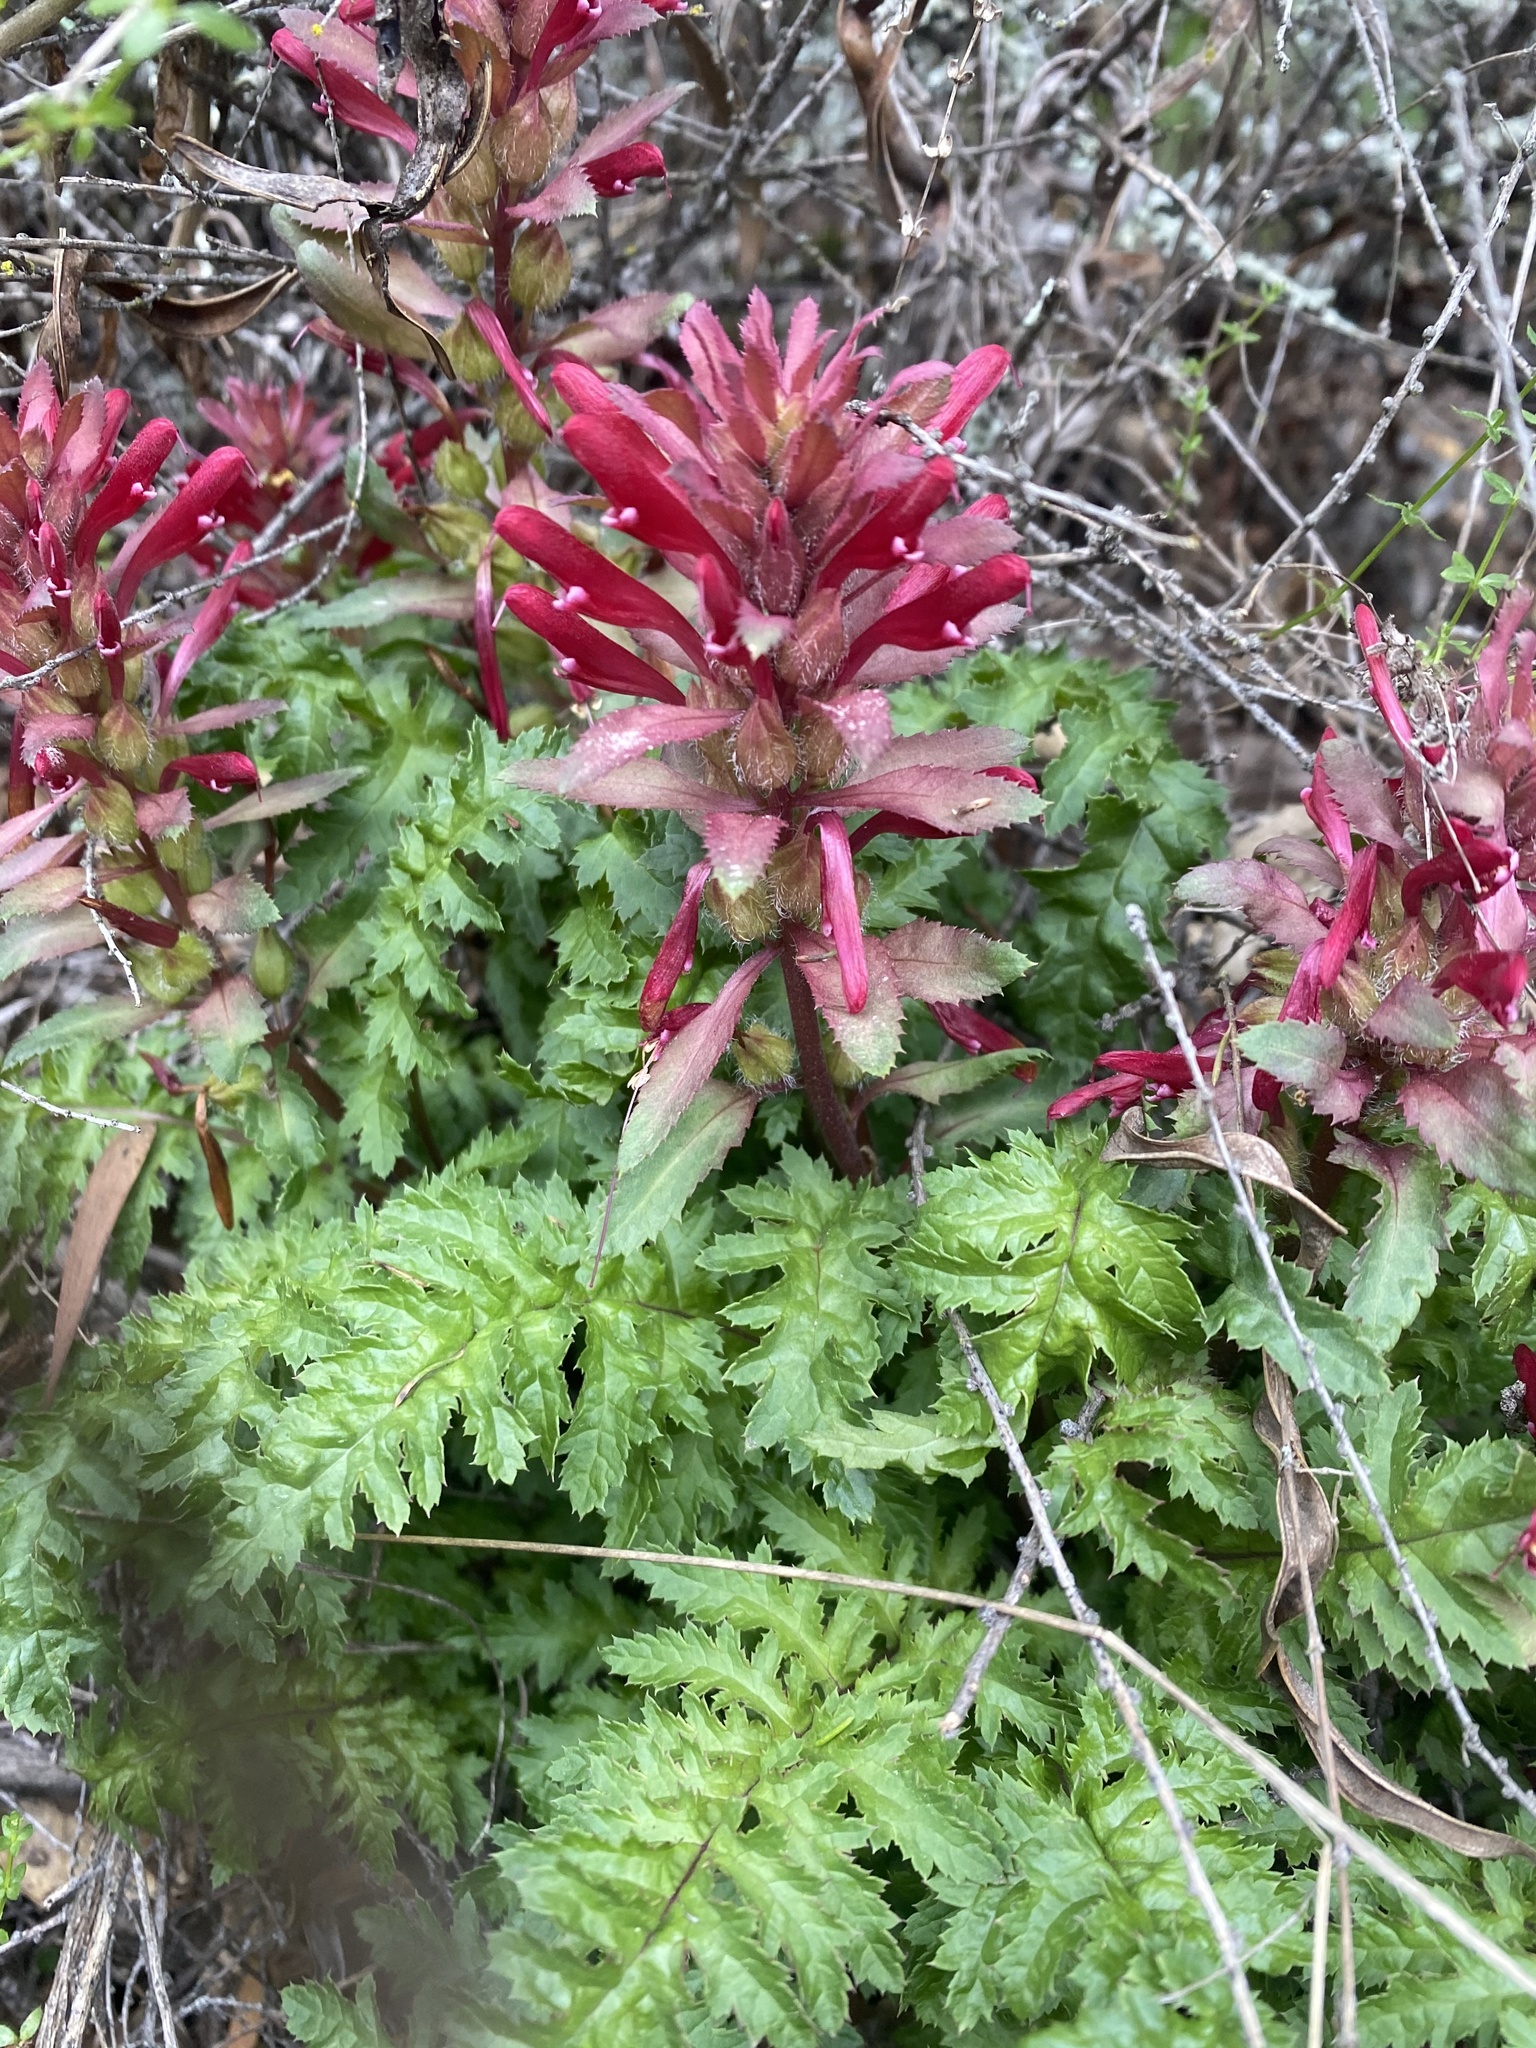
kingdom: Plantae
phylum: Tracheophyta
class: Magnoliopsida
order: Lamiales
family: Orobanchaceae
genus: Pedicularis
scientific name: Pedicularis densiflora
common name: Indian warrior
